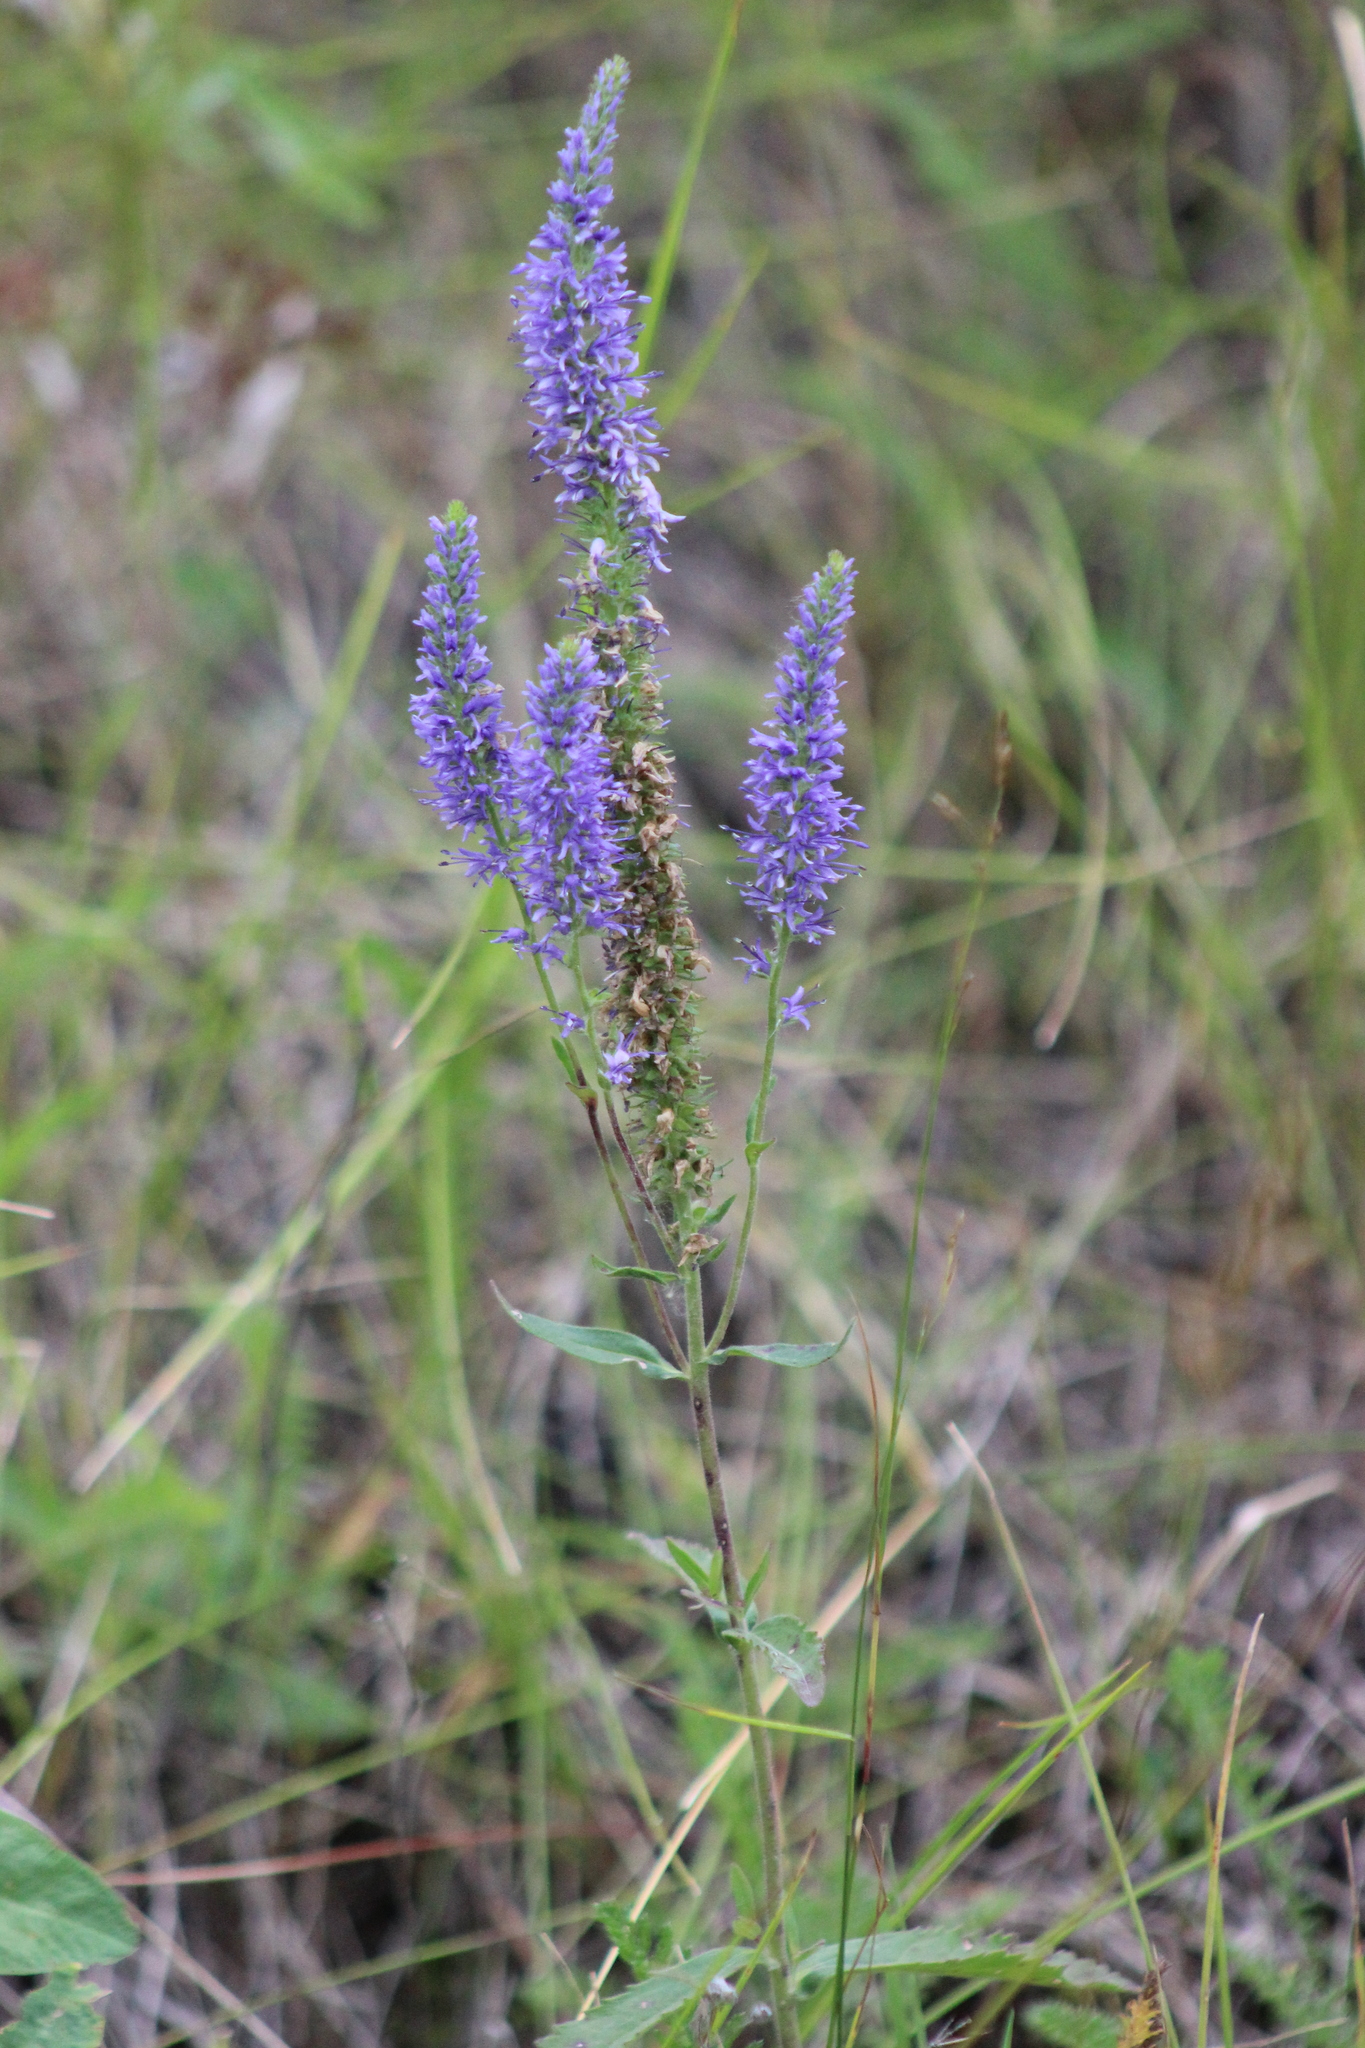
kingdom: Plantae
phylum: Tracheophyta
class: Magnoliopsida
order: Lamiales
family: Plantaginaceae
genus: Veronica
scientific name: Veronica spicata
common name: Spiked speedwell
